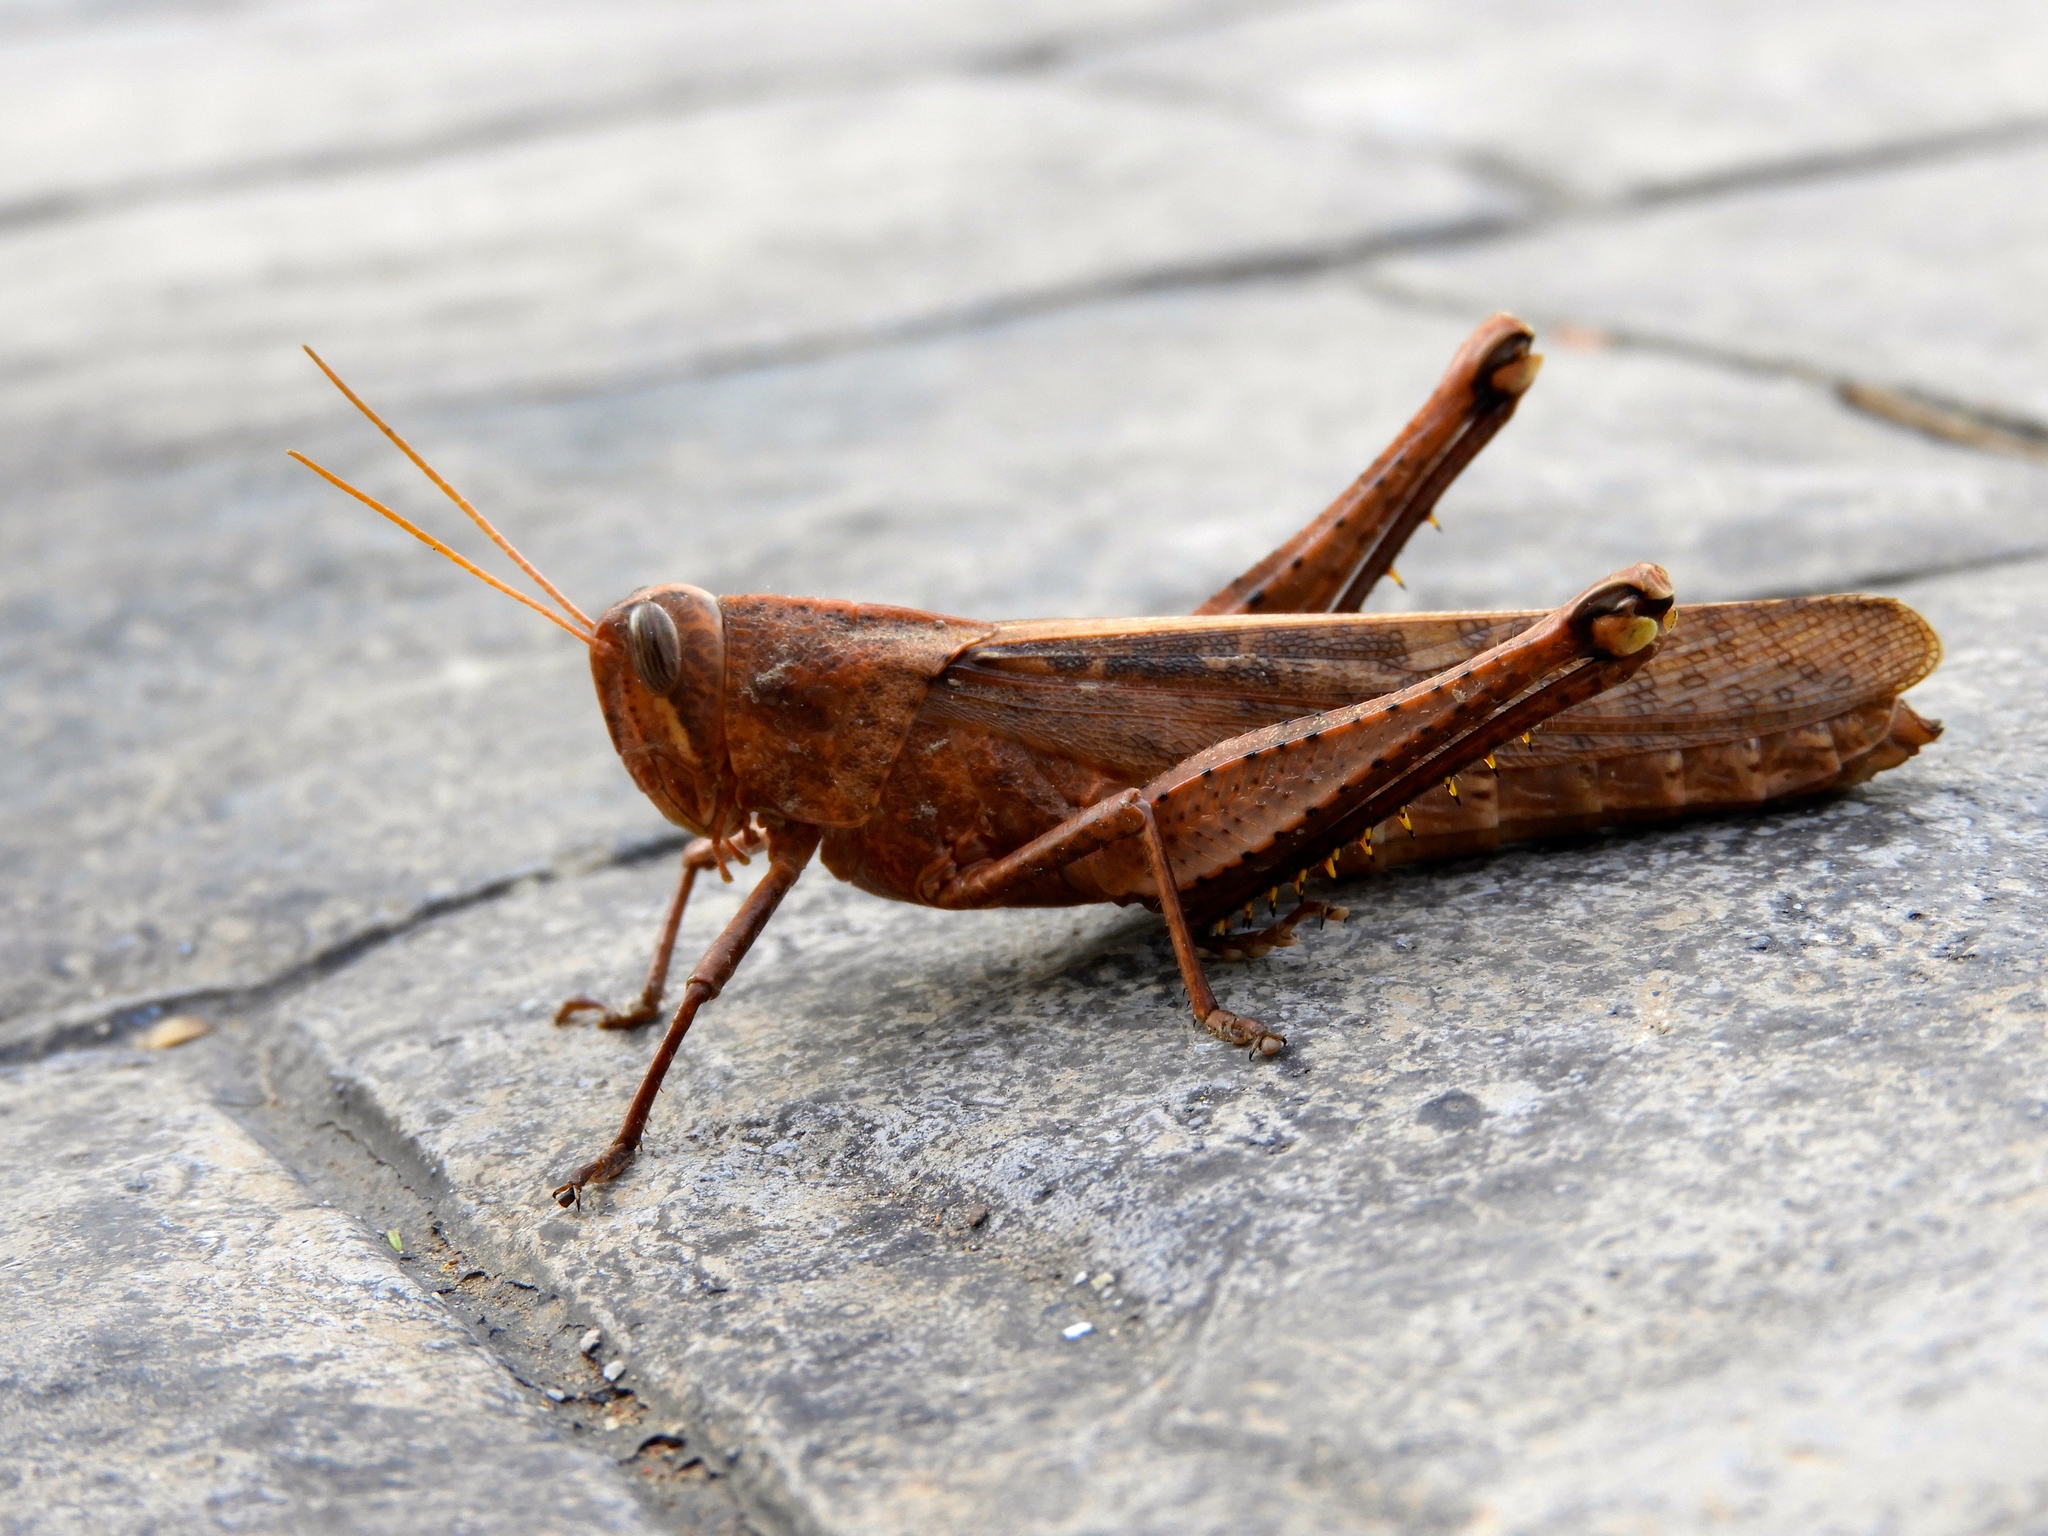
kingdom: Animalia
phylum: Arthropoda
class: Insecta
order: Orthoptera
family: Acrididae
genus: Schistocerca
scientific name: Schistocerca
